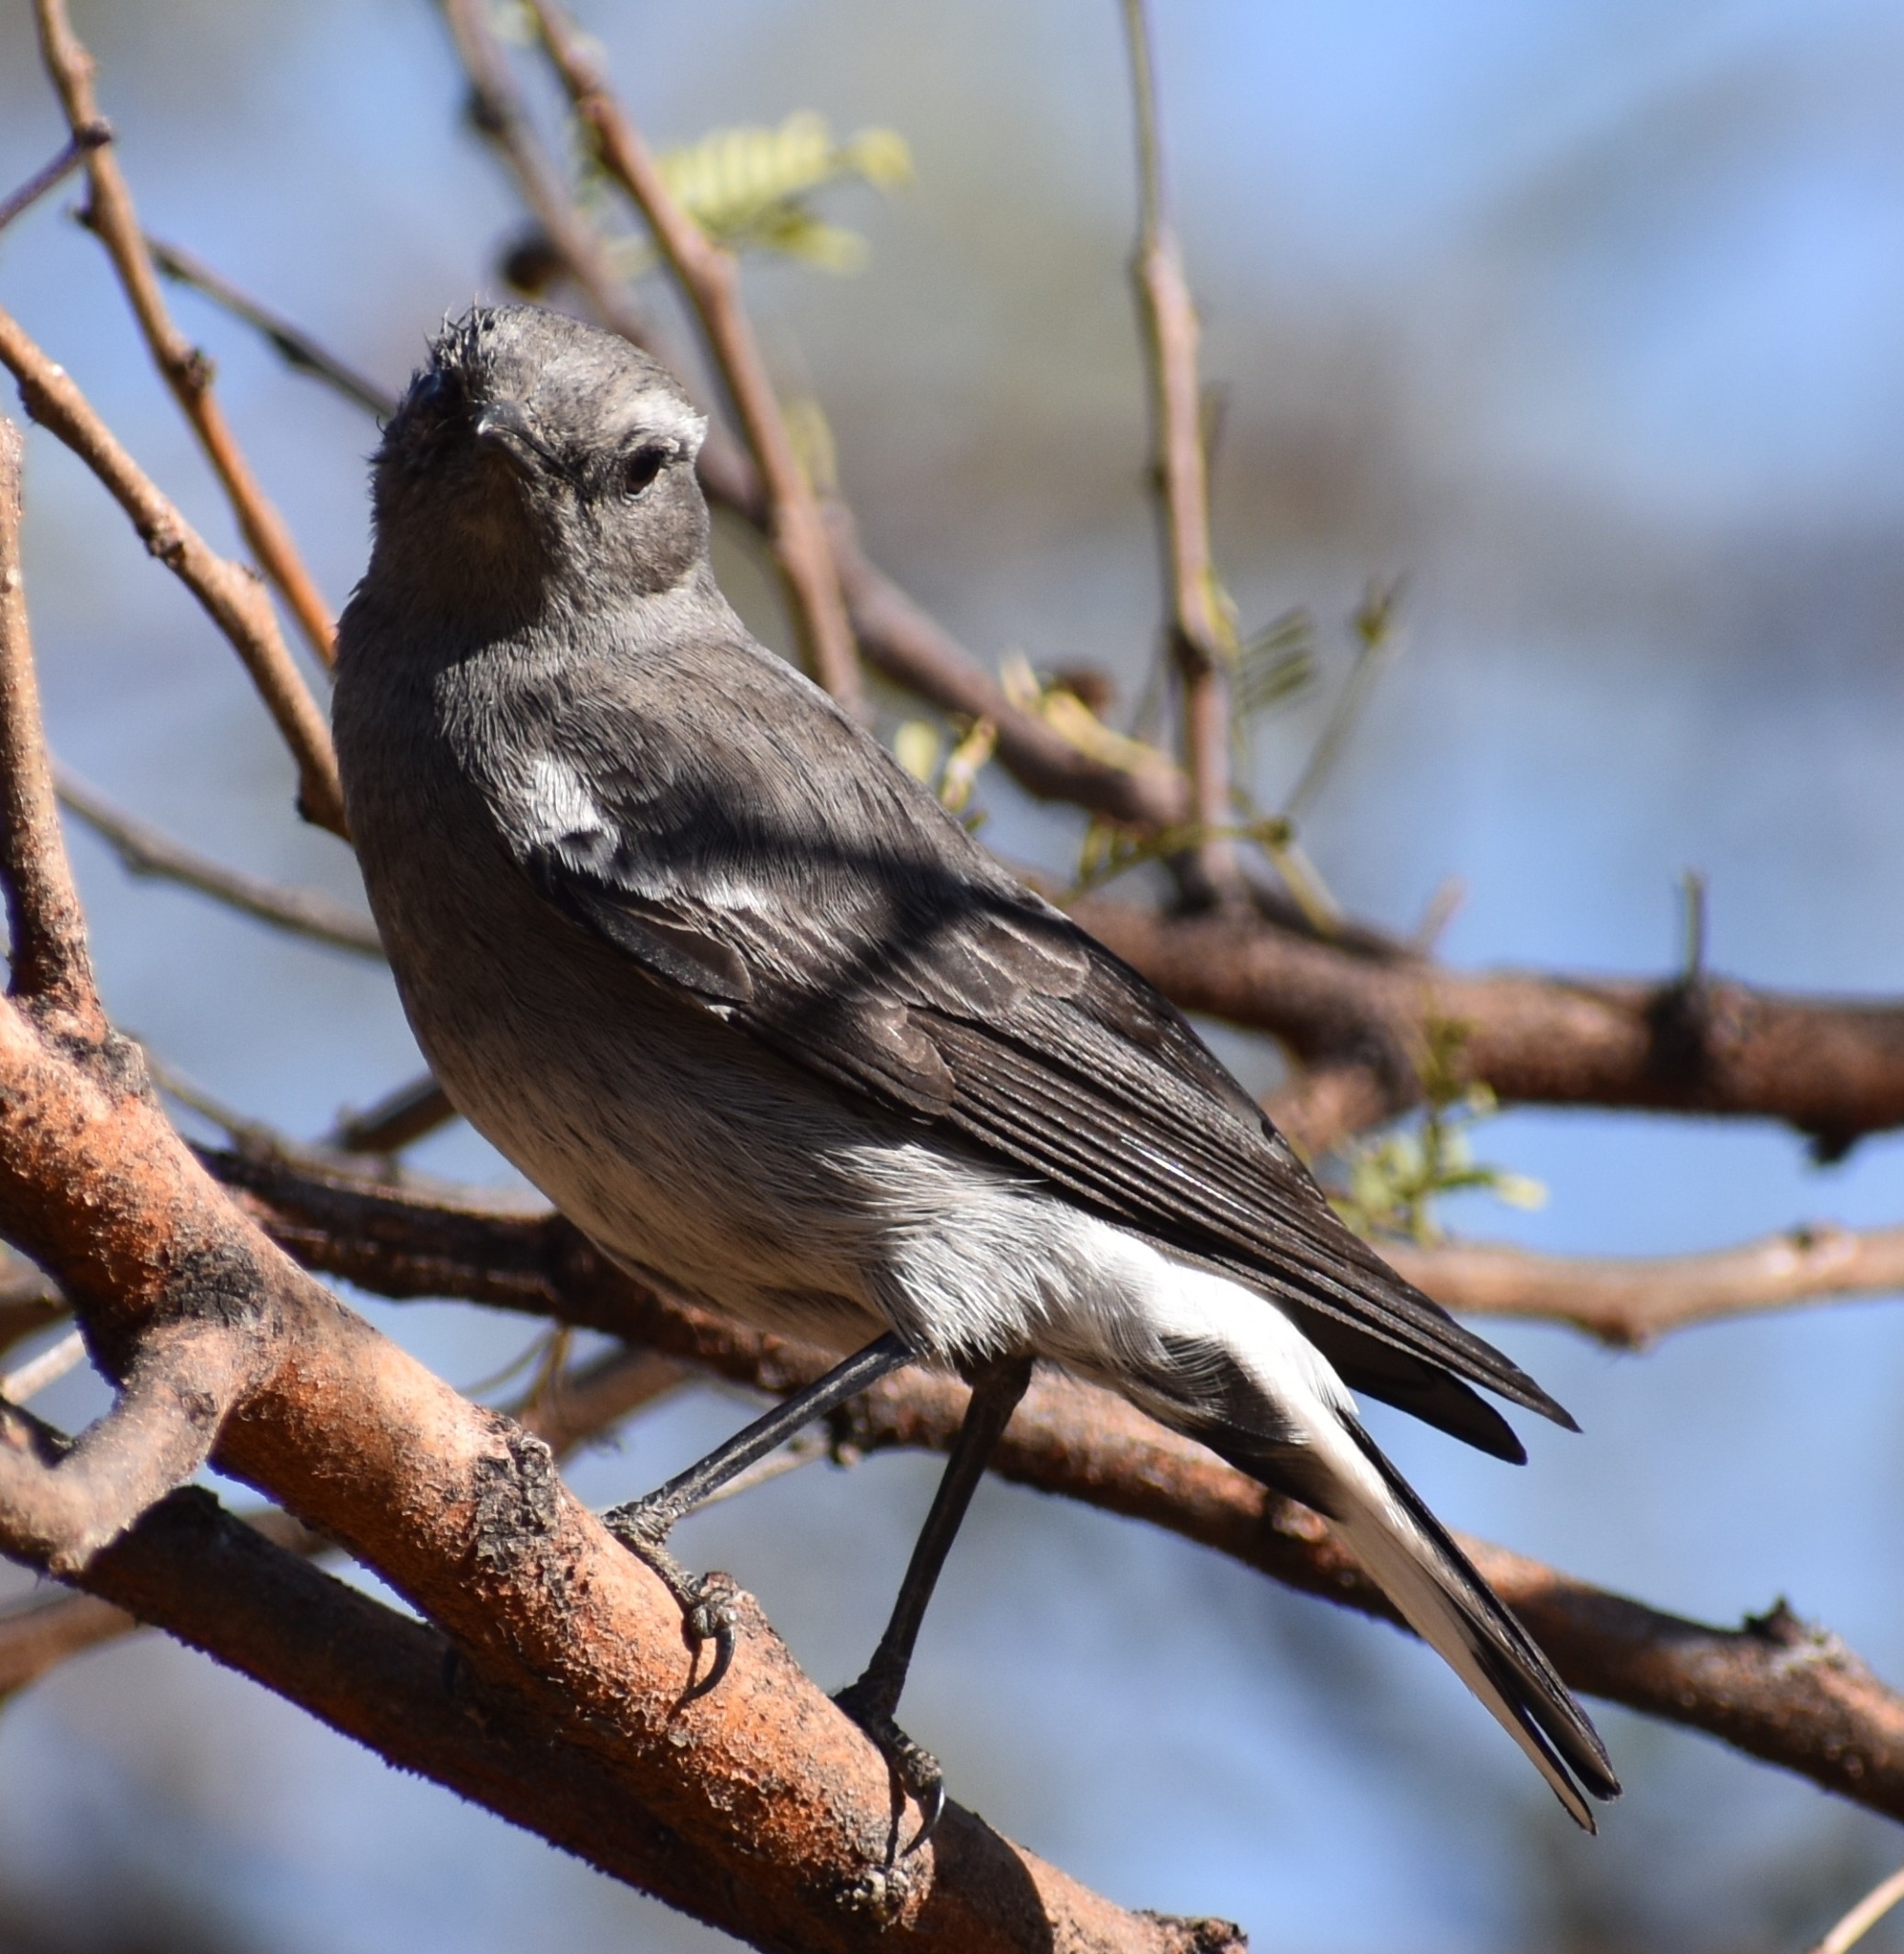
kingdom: Animalia
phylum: Chordata
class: Aves
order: Passeriformes
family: Muscicapidae
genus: Oenanthe
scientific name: Oenanthe monticola
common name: Mountain wheatear
